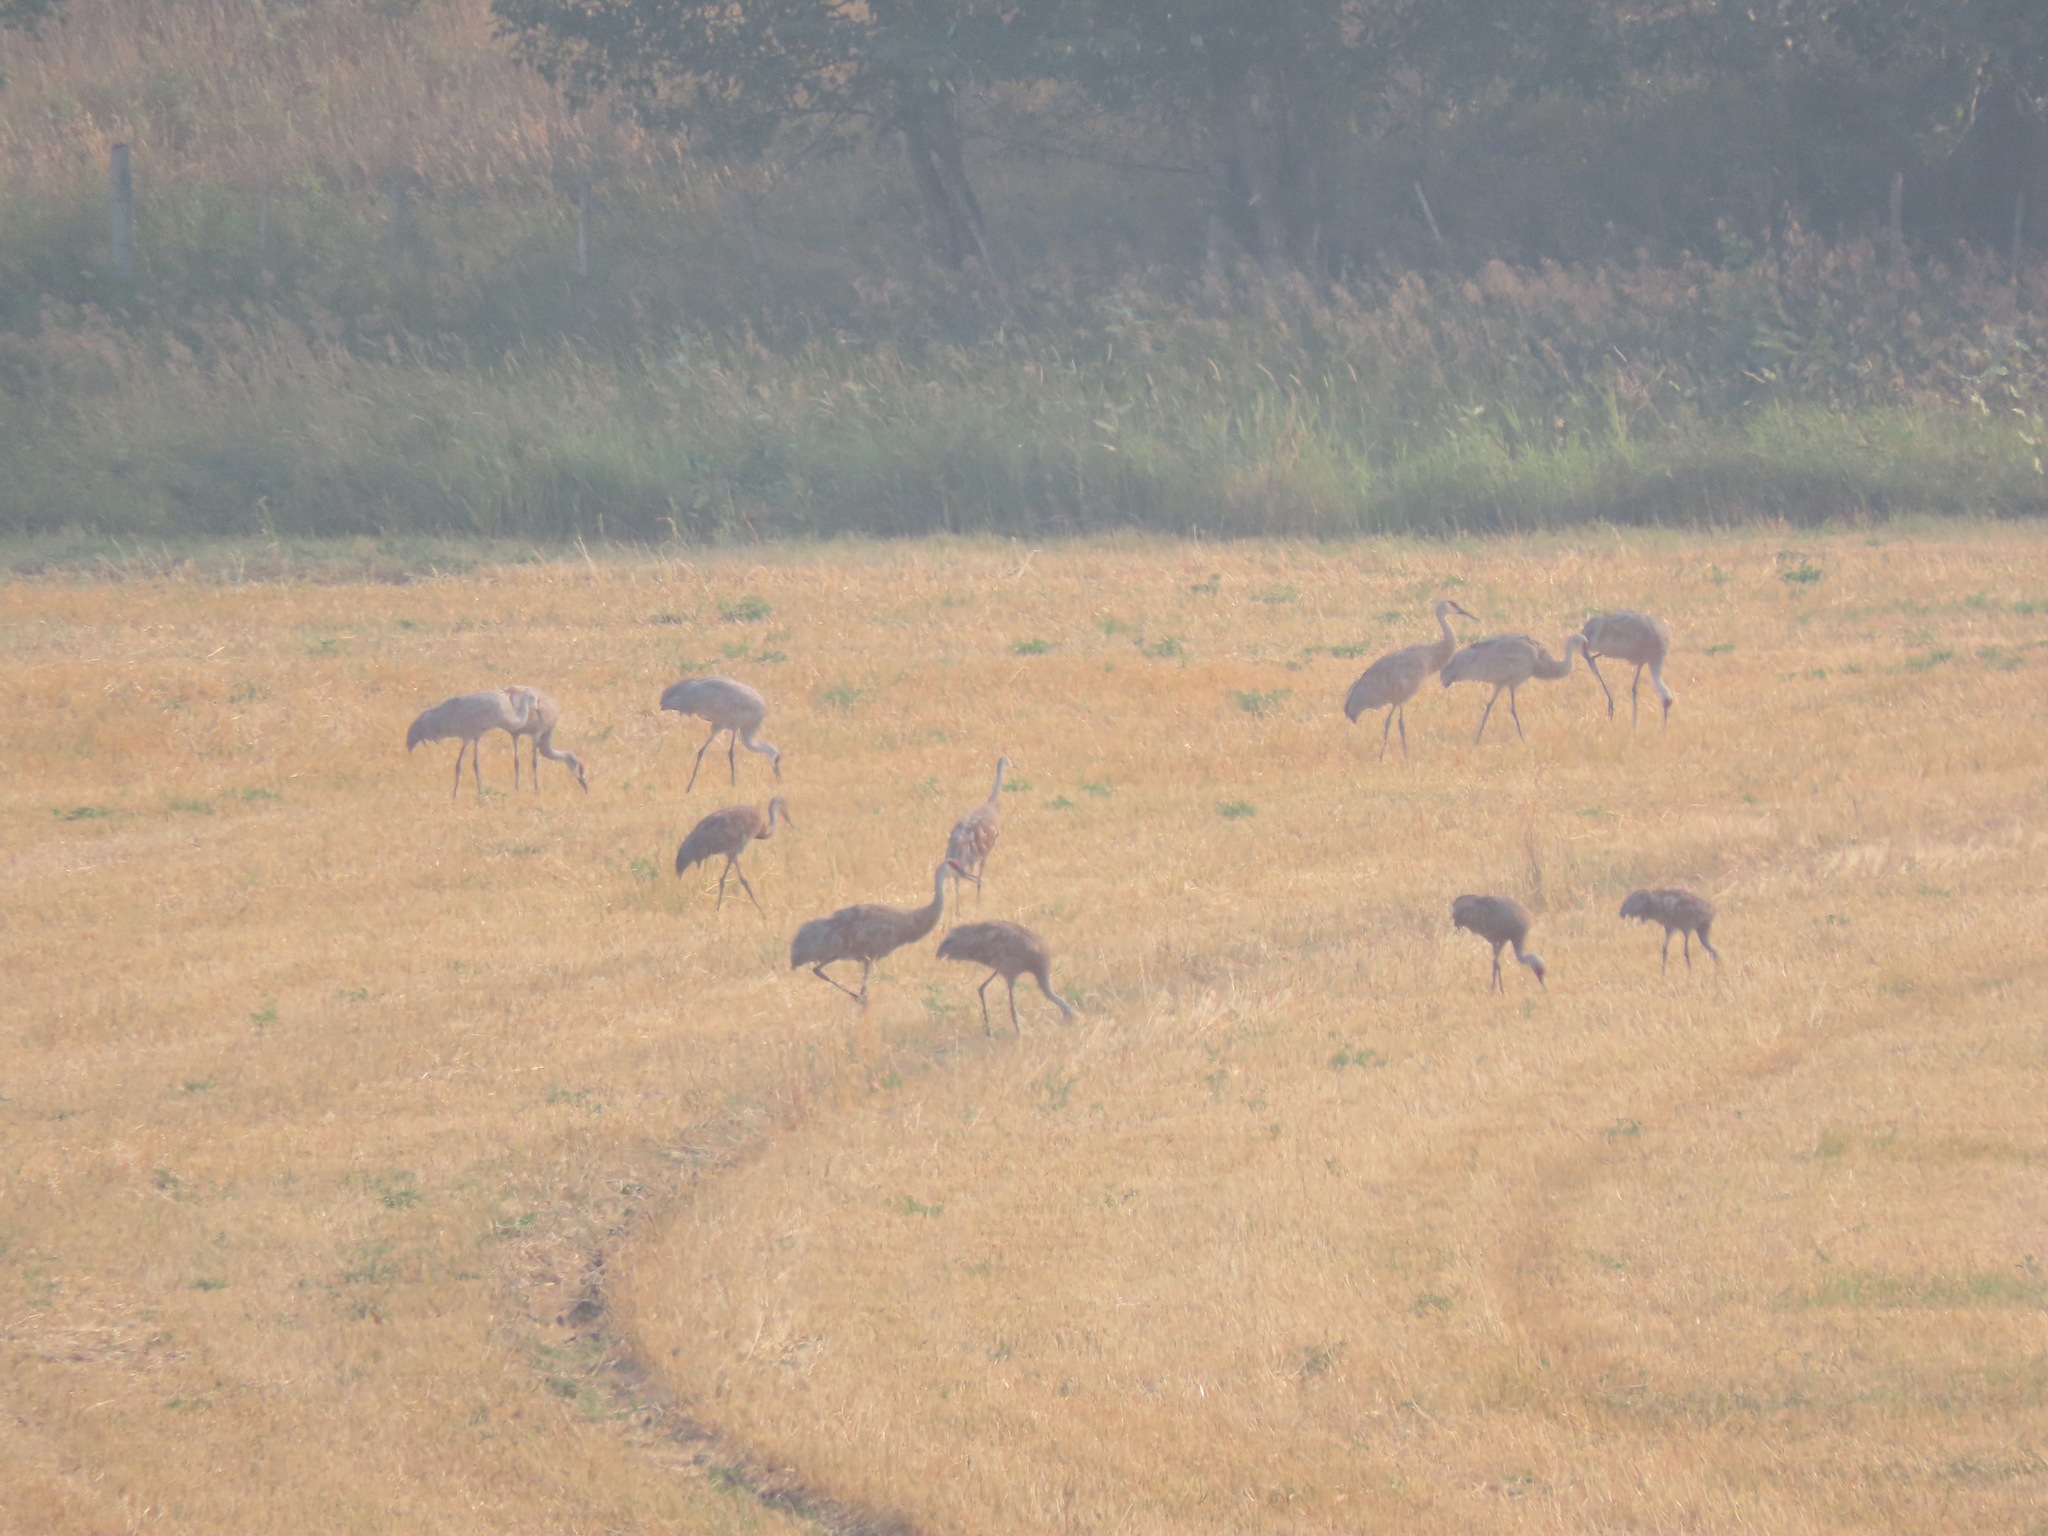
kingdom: Animalia
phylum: Chordata
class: Aves
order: Gruiformes
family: Gruidae
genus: Grus
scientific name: Grus canadensis
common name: Sandhill crane
